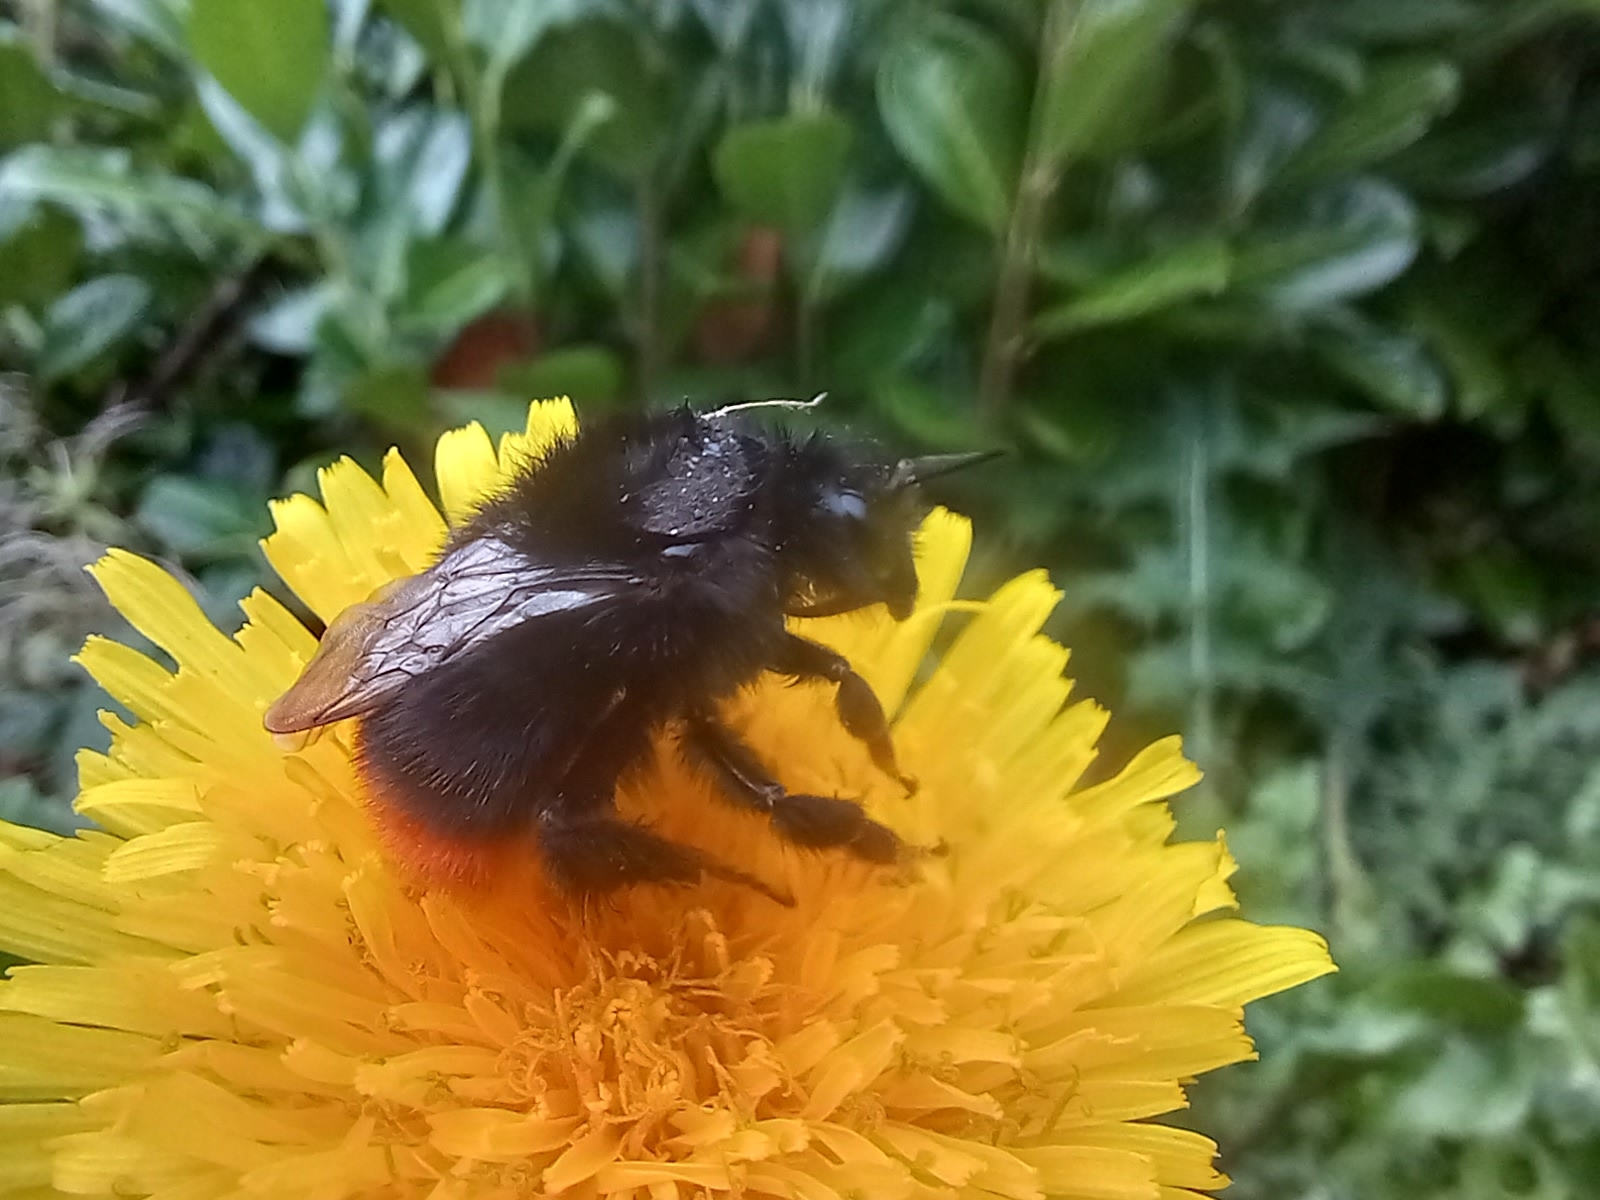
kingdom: Animalia
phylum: Arthropoda
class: Insecta
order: Hymenoptera
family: Apidae
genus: Bombus
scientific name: Bombus lapidarius
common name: Large red-tailed humble-bee
